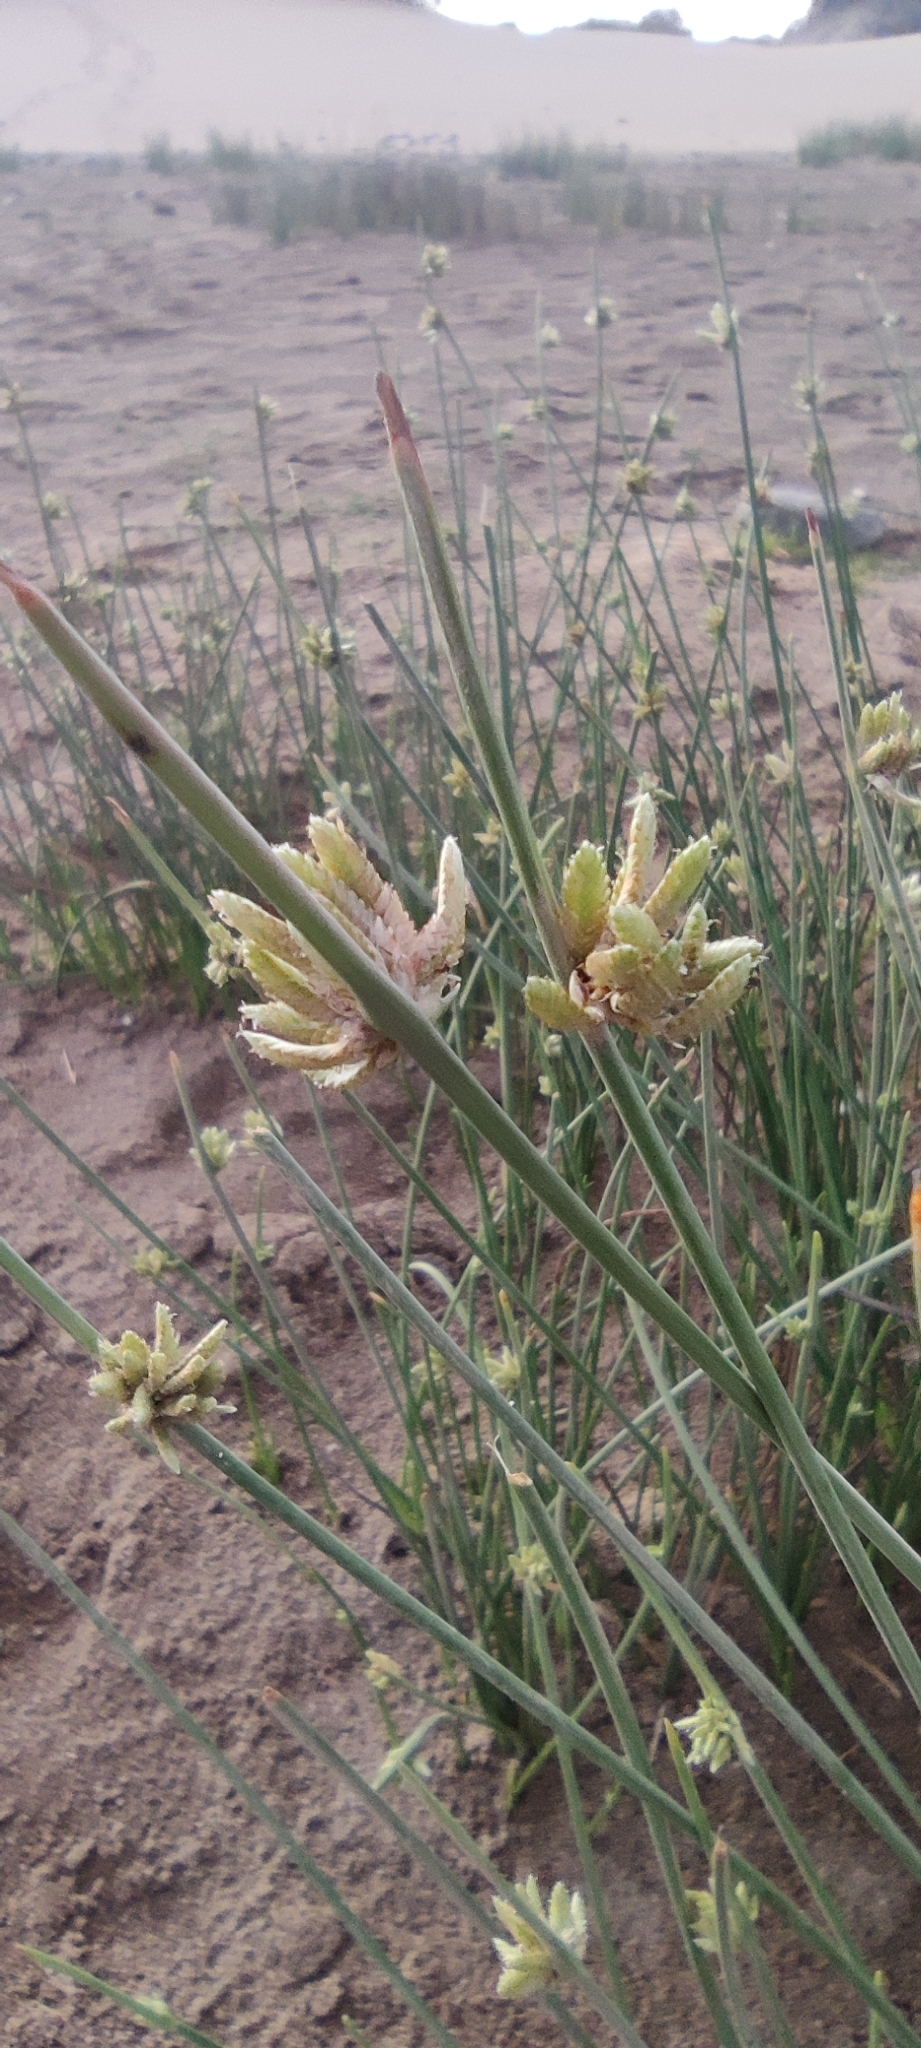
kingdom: Plantae
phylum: Tracheophyta
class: Liliopsida
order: Poales
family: Cyperaceae
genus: Cyperus
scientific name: Cyperus laevigatus
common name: Smooth flat sedge
